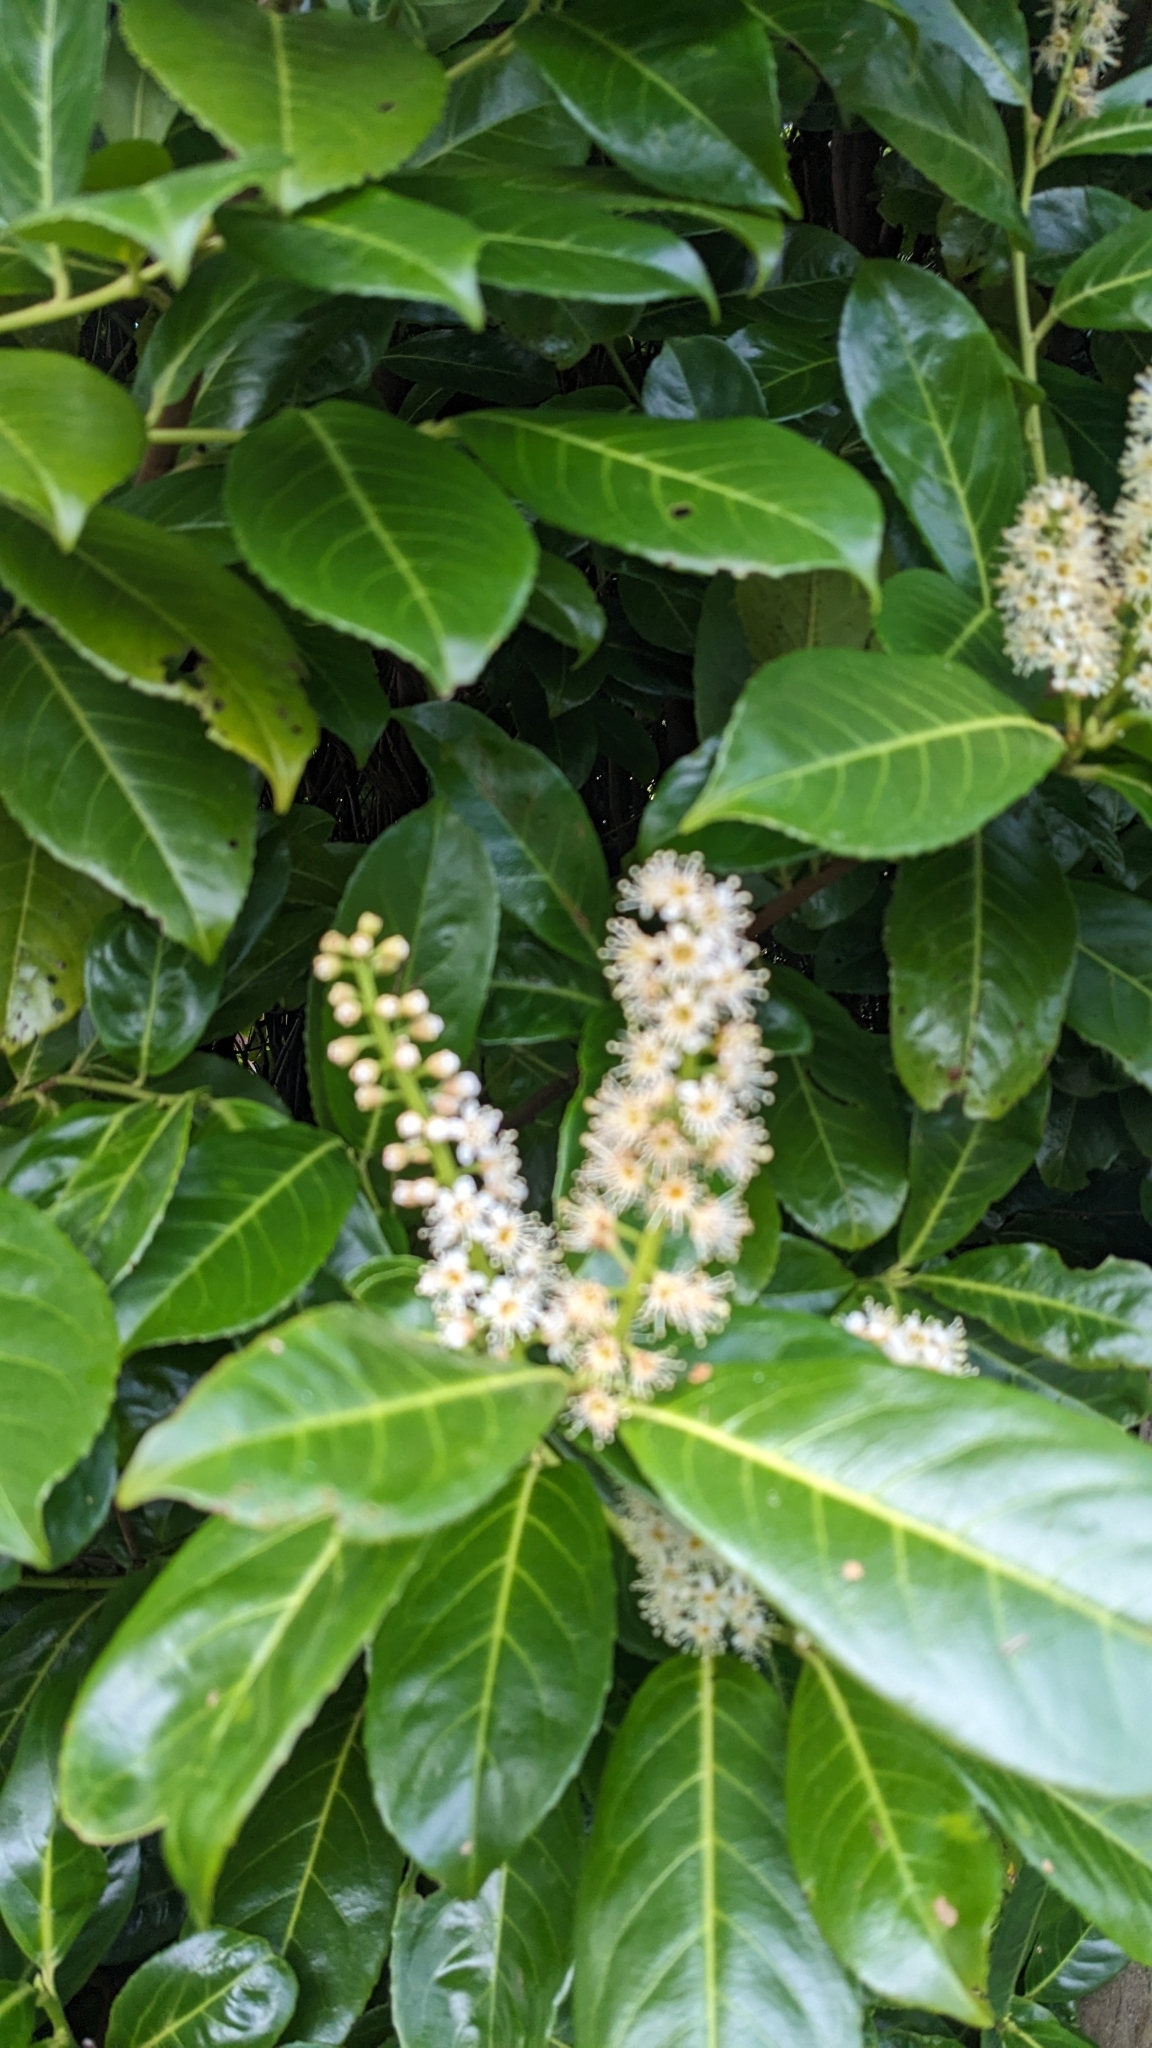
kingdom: Plantae
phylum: Tracheophyta
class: Magnoliopsida
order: Rosales
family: Rosaceae
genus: Prunus
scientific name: Prunus laurocerasus
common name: Cherry laurel
